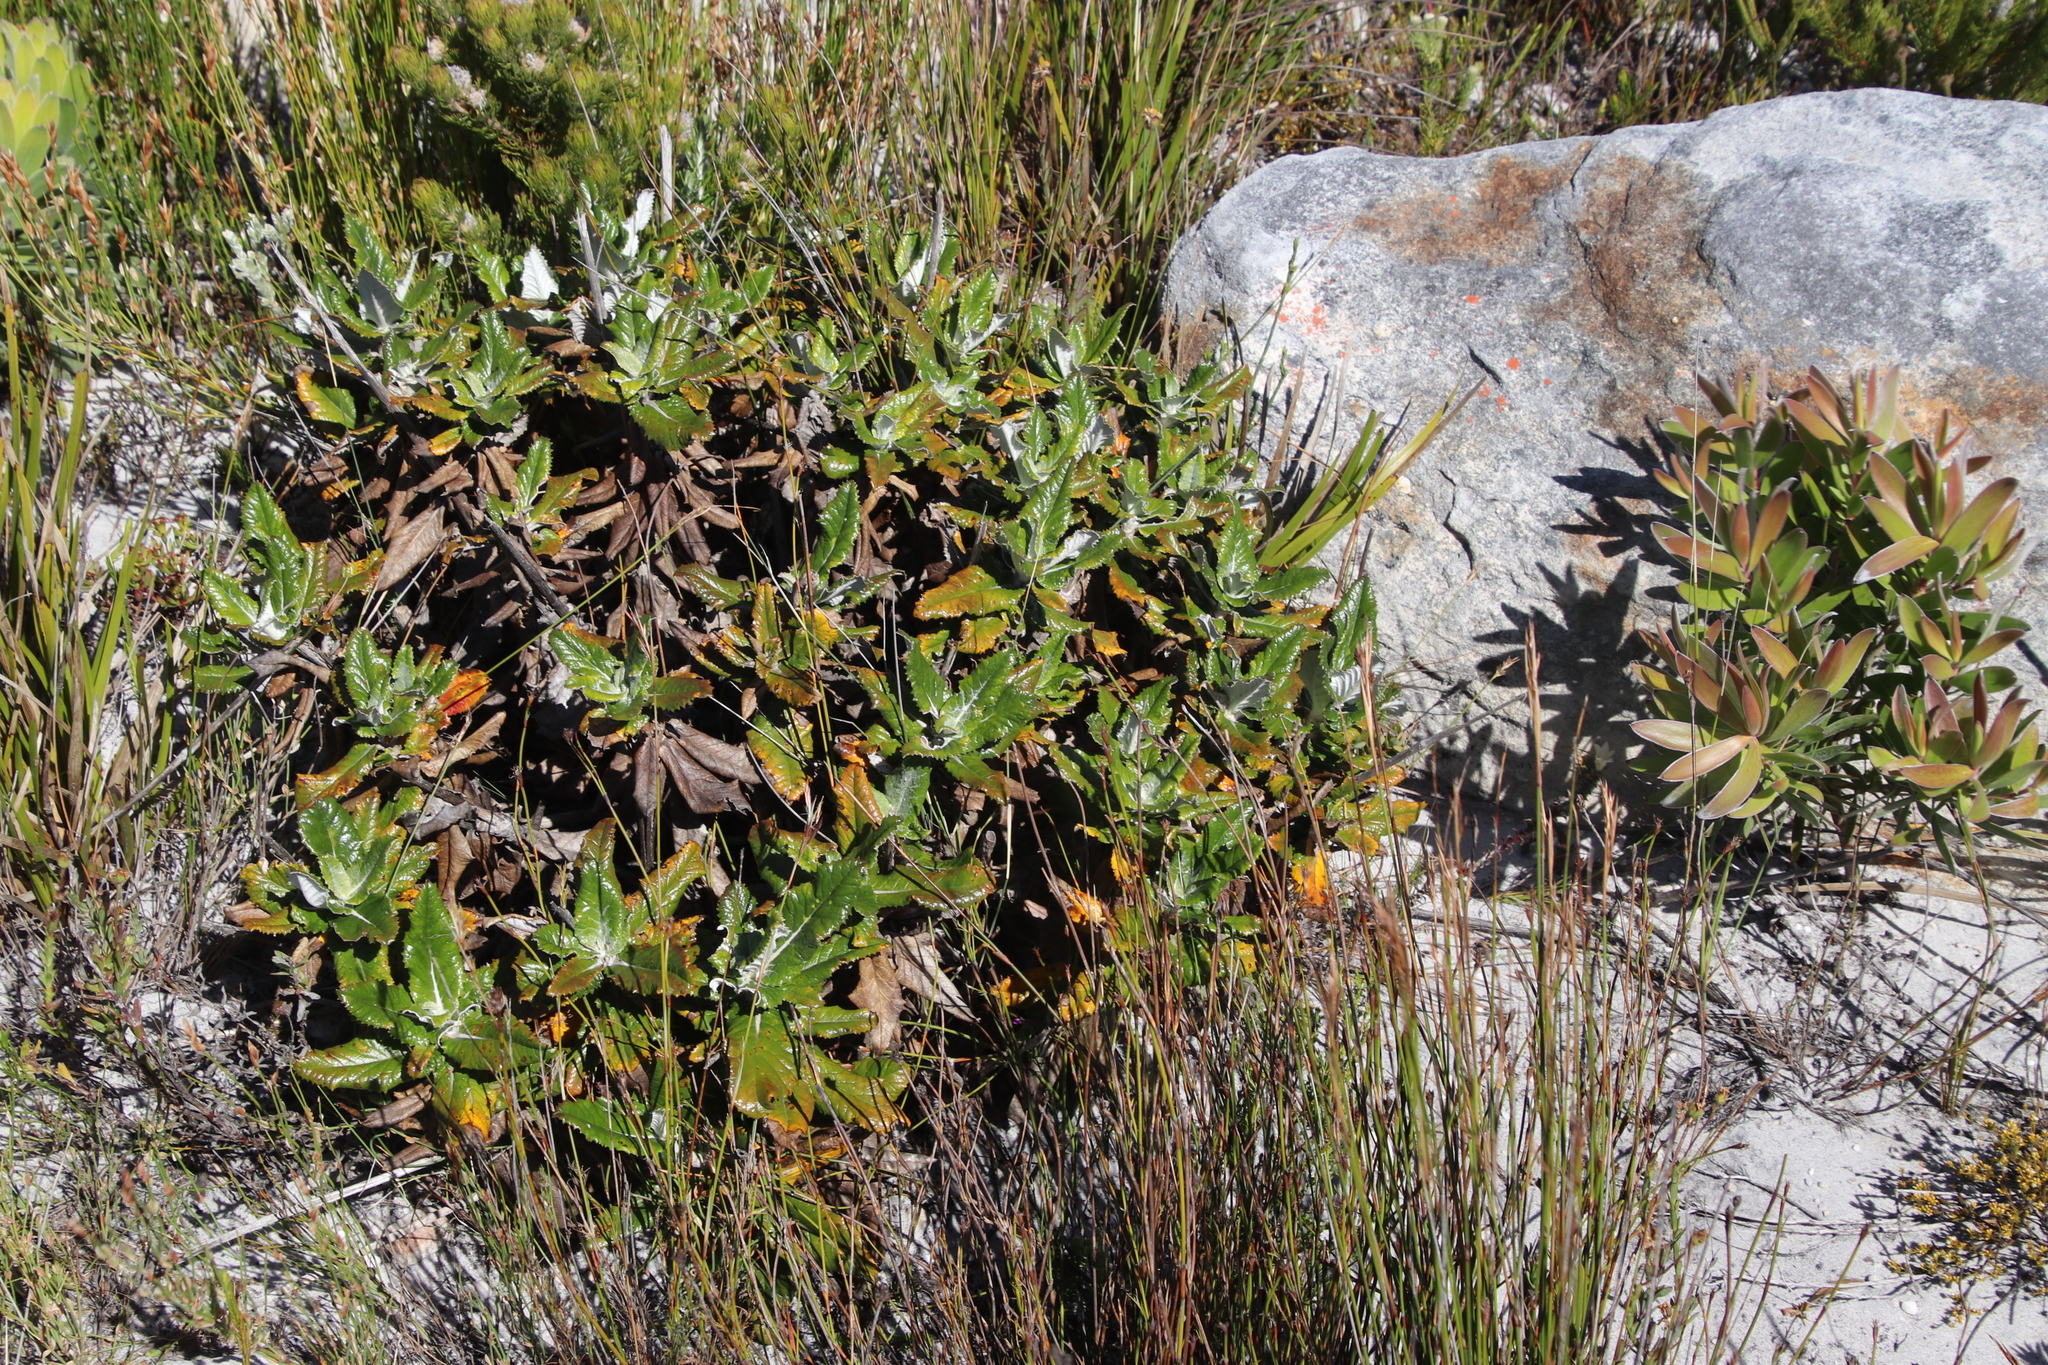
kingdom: Plantae
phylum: Tracheophyta
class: Magnoliopsida
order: Apiales
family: Apiaceae
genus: Hermas
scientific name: Hermas villosa
